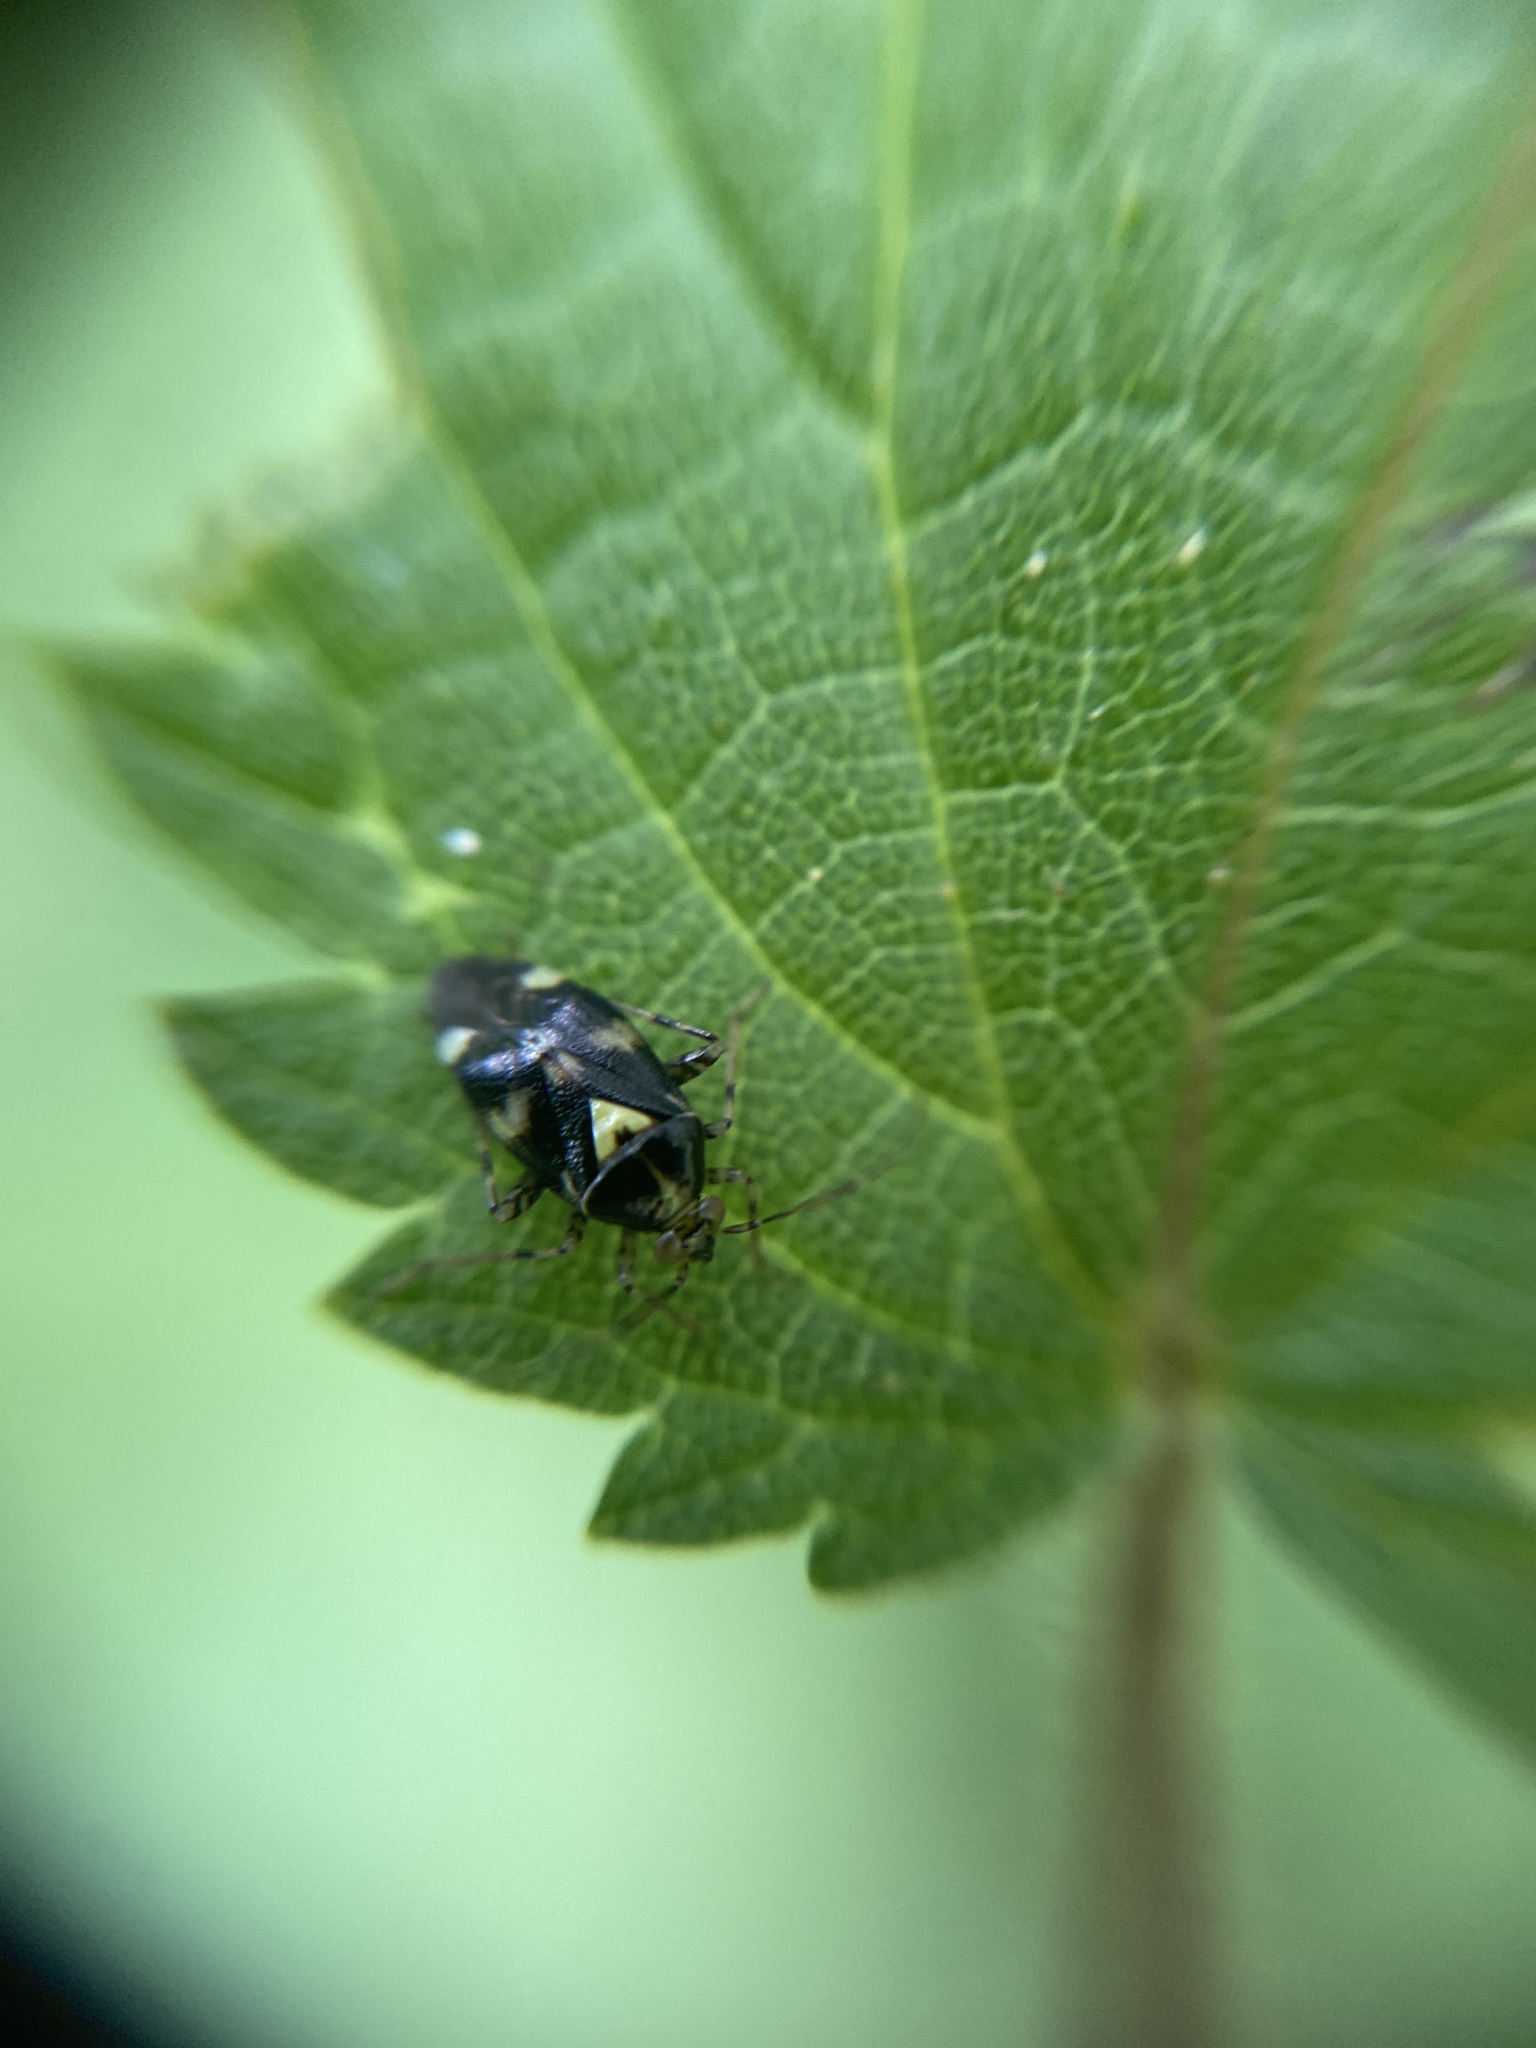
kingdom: Animalia
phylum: Arthropoda
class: Insecta
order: Hemiptera
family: Miridae
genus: Liocoris
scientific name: Liocoris tripustulatus
